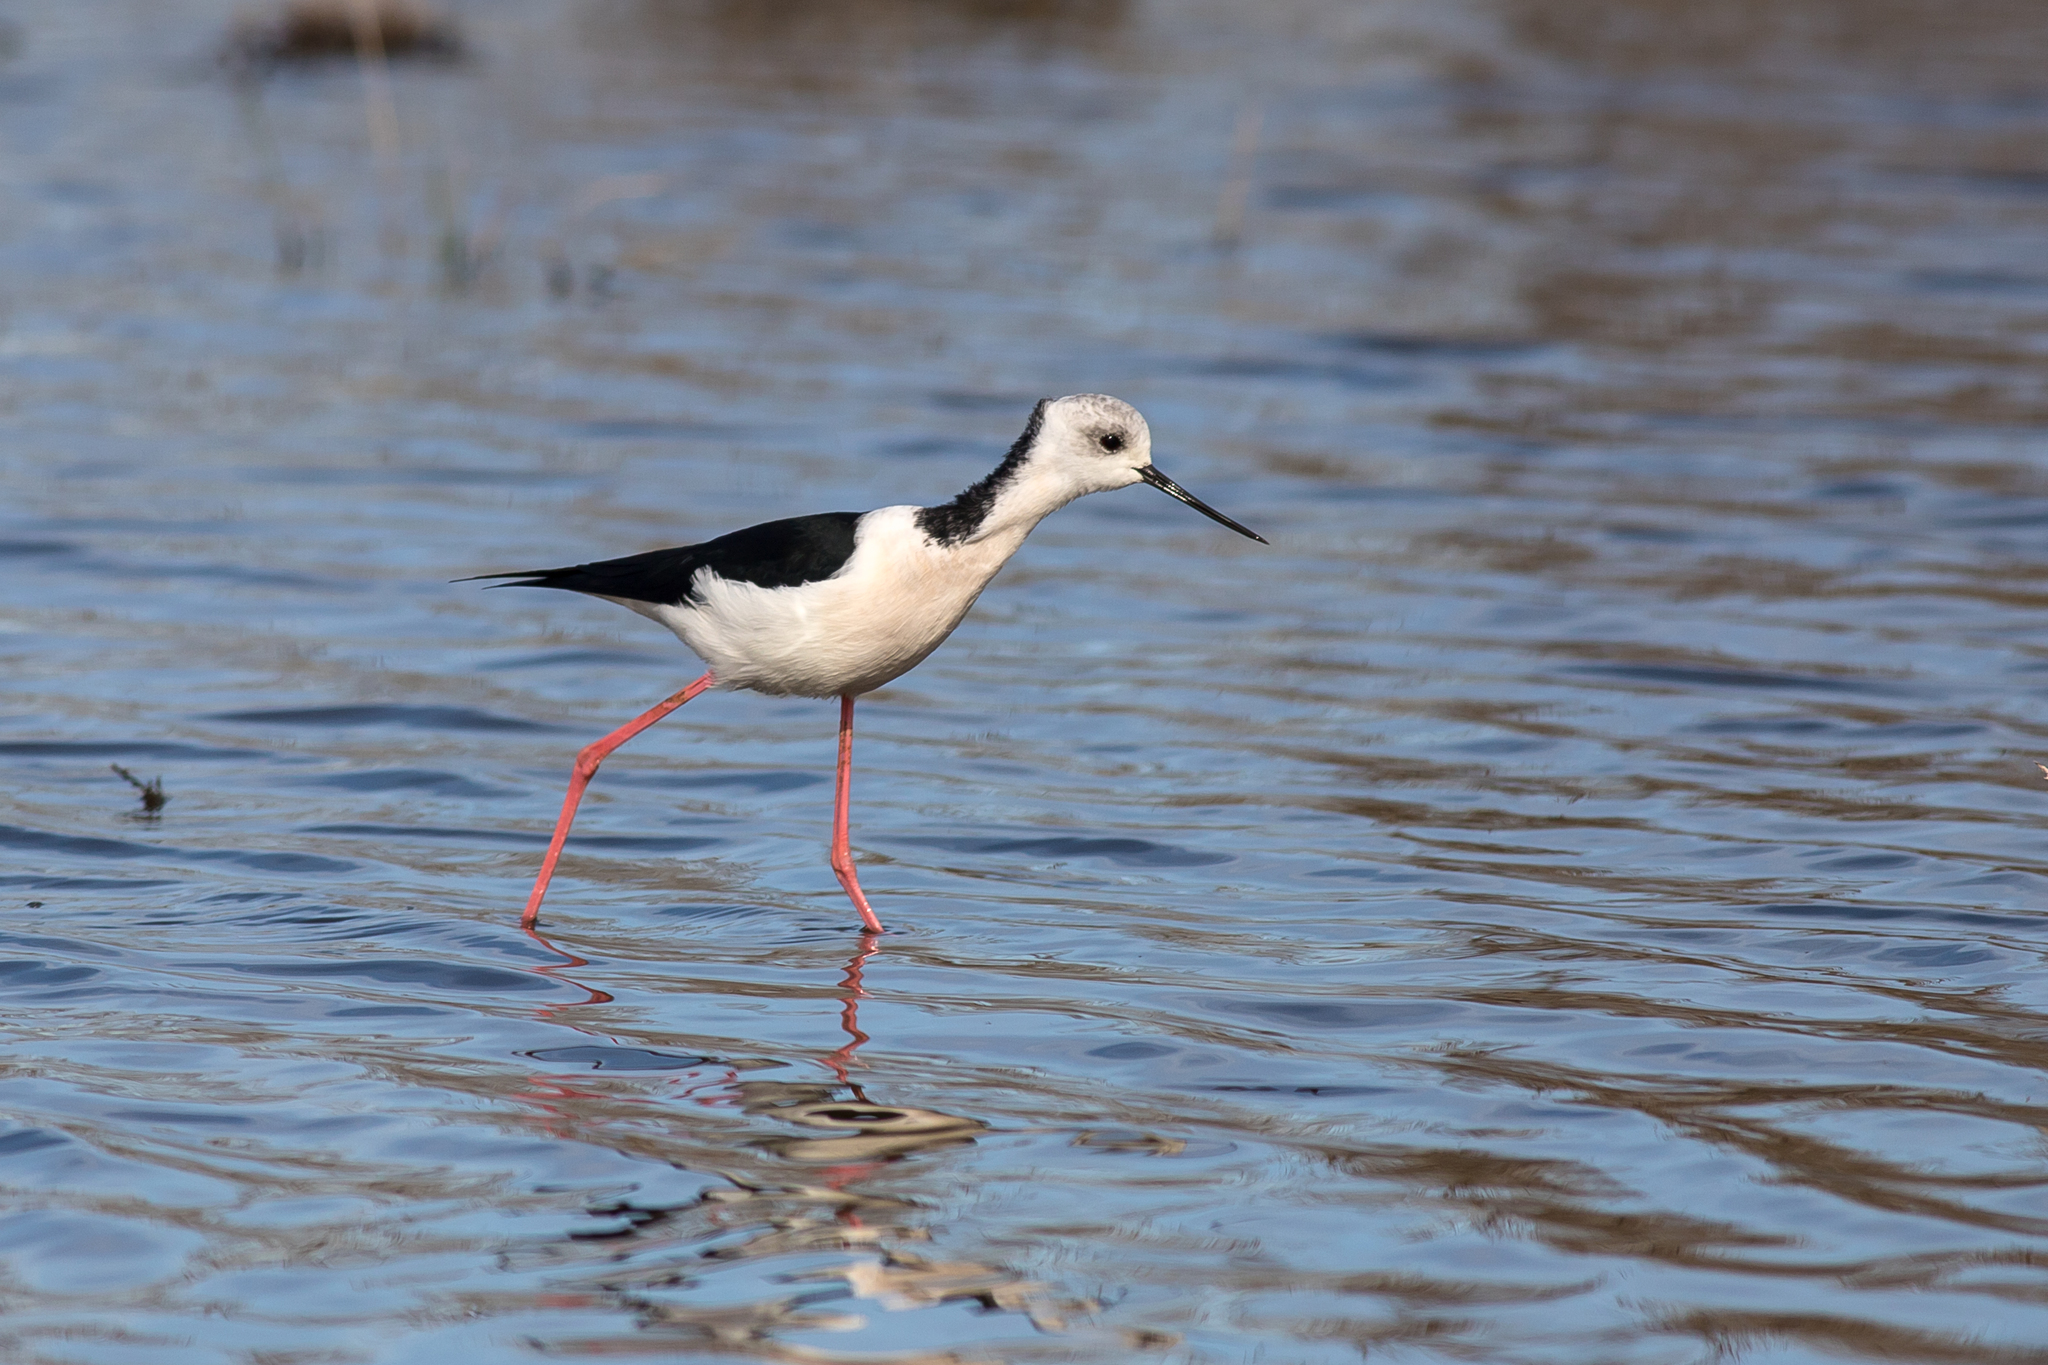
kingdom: Animalia
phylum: Chordata
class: Aves
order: Charadriiformes
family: Recurvirostridae
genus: Himantopus
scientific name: Himantopus leucocephalus
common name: White-headed stilt
